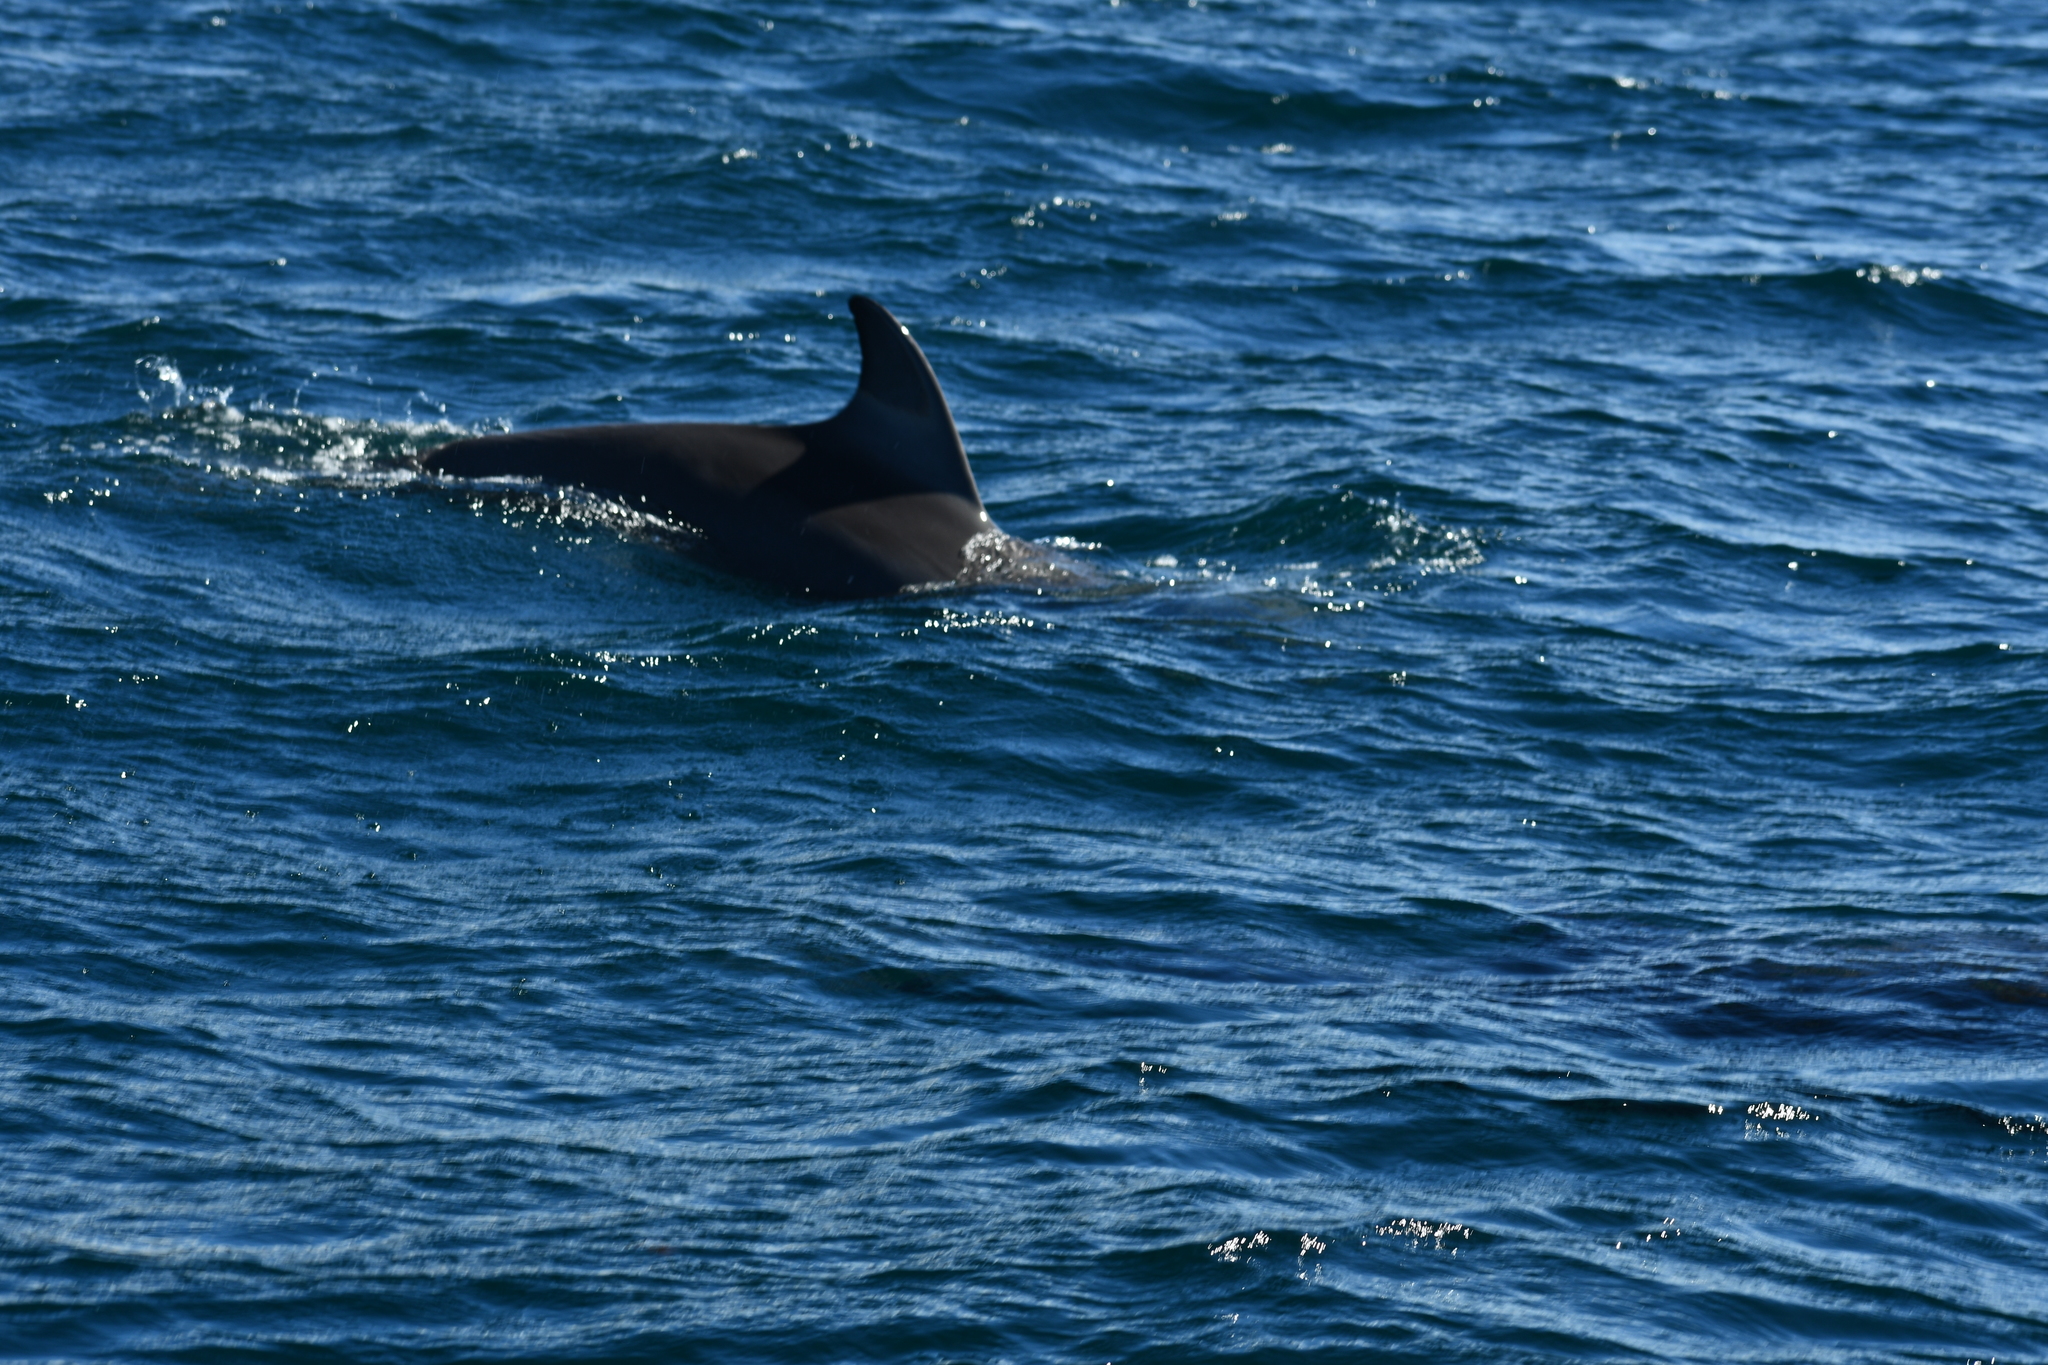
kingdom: Animalia
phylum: Chordata
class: Mammalia
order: Cetacea
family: Delphinidae
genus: Tursiops
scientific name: Tursiops truncatus
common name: Bottlenose dolphin
